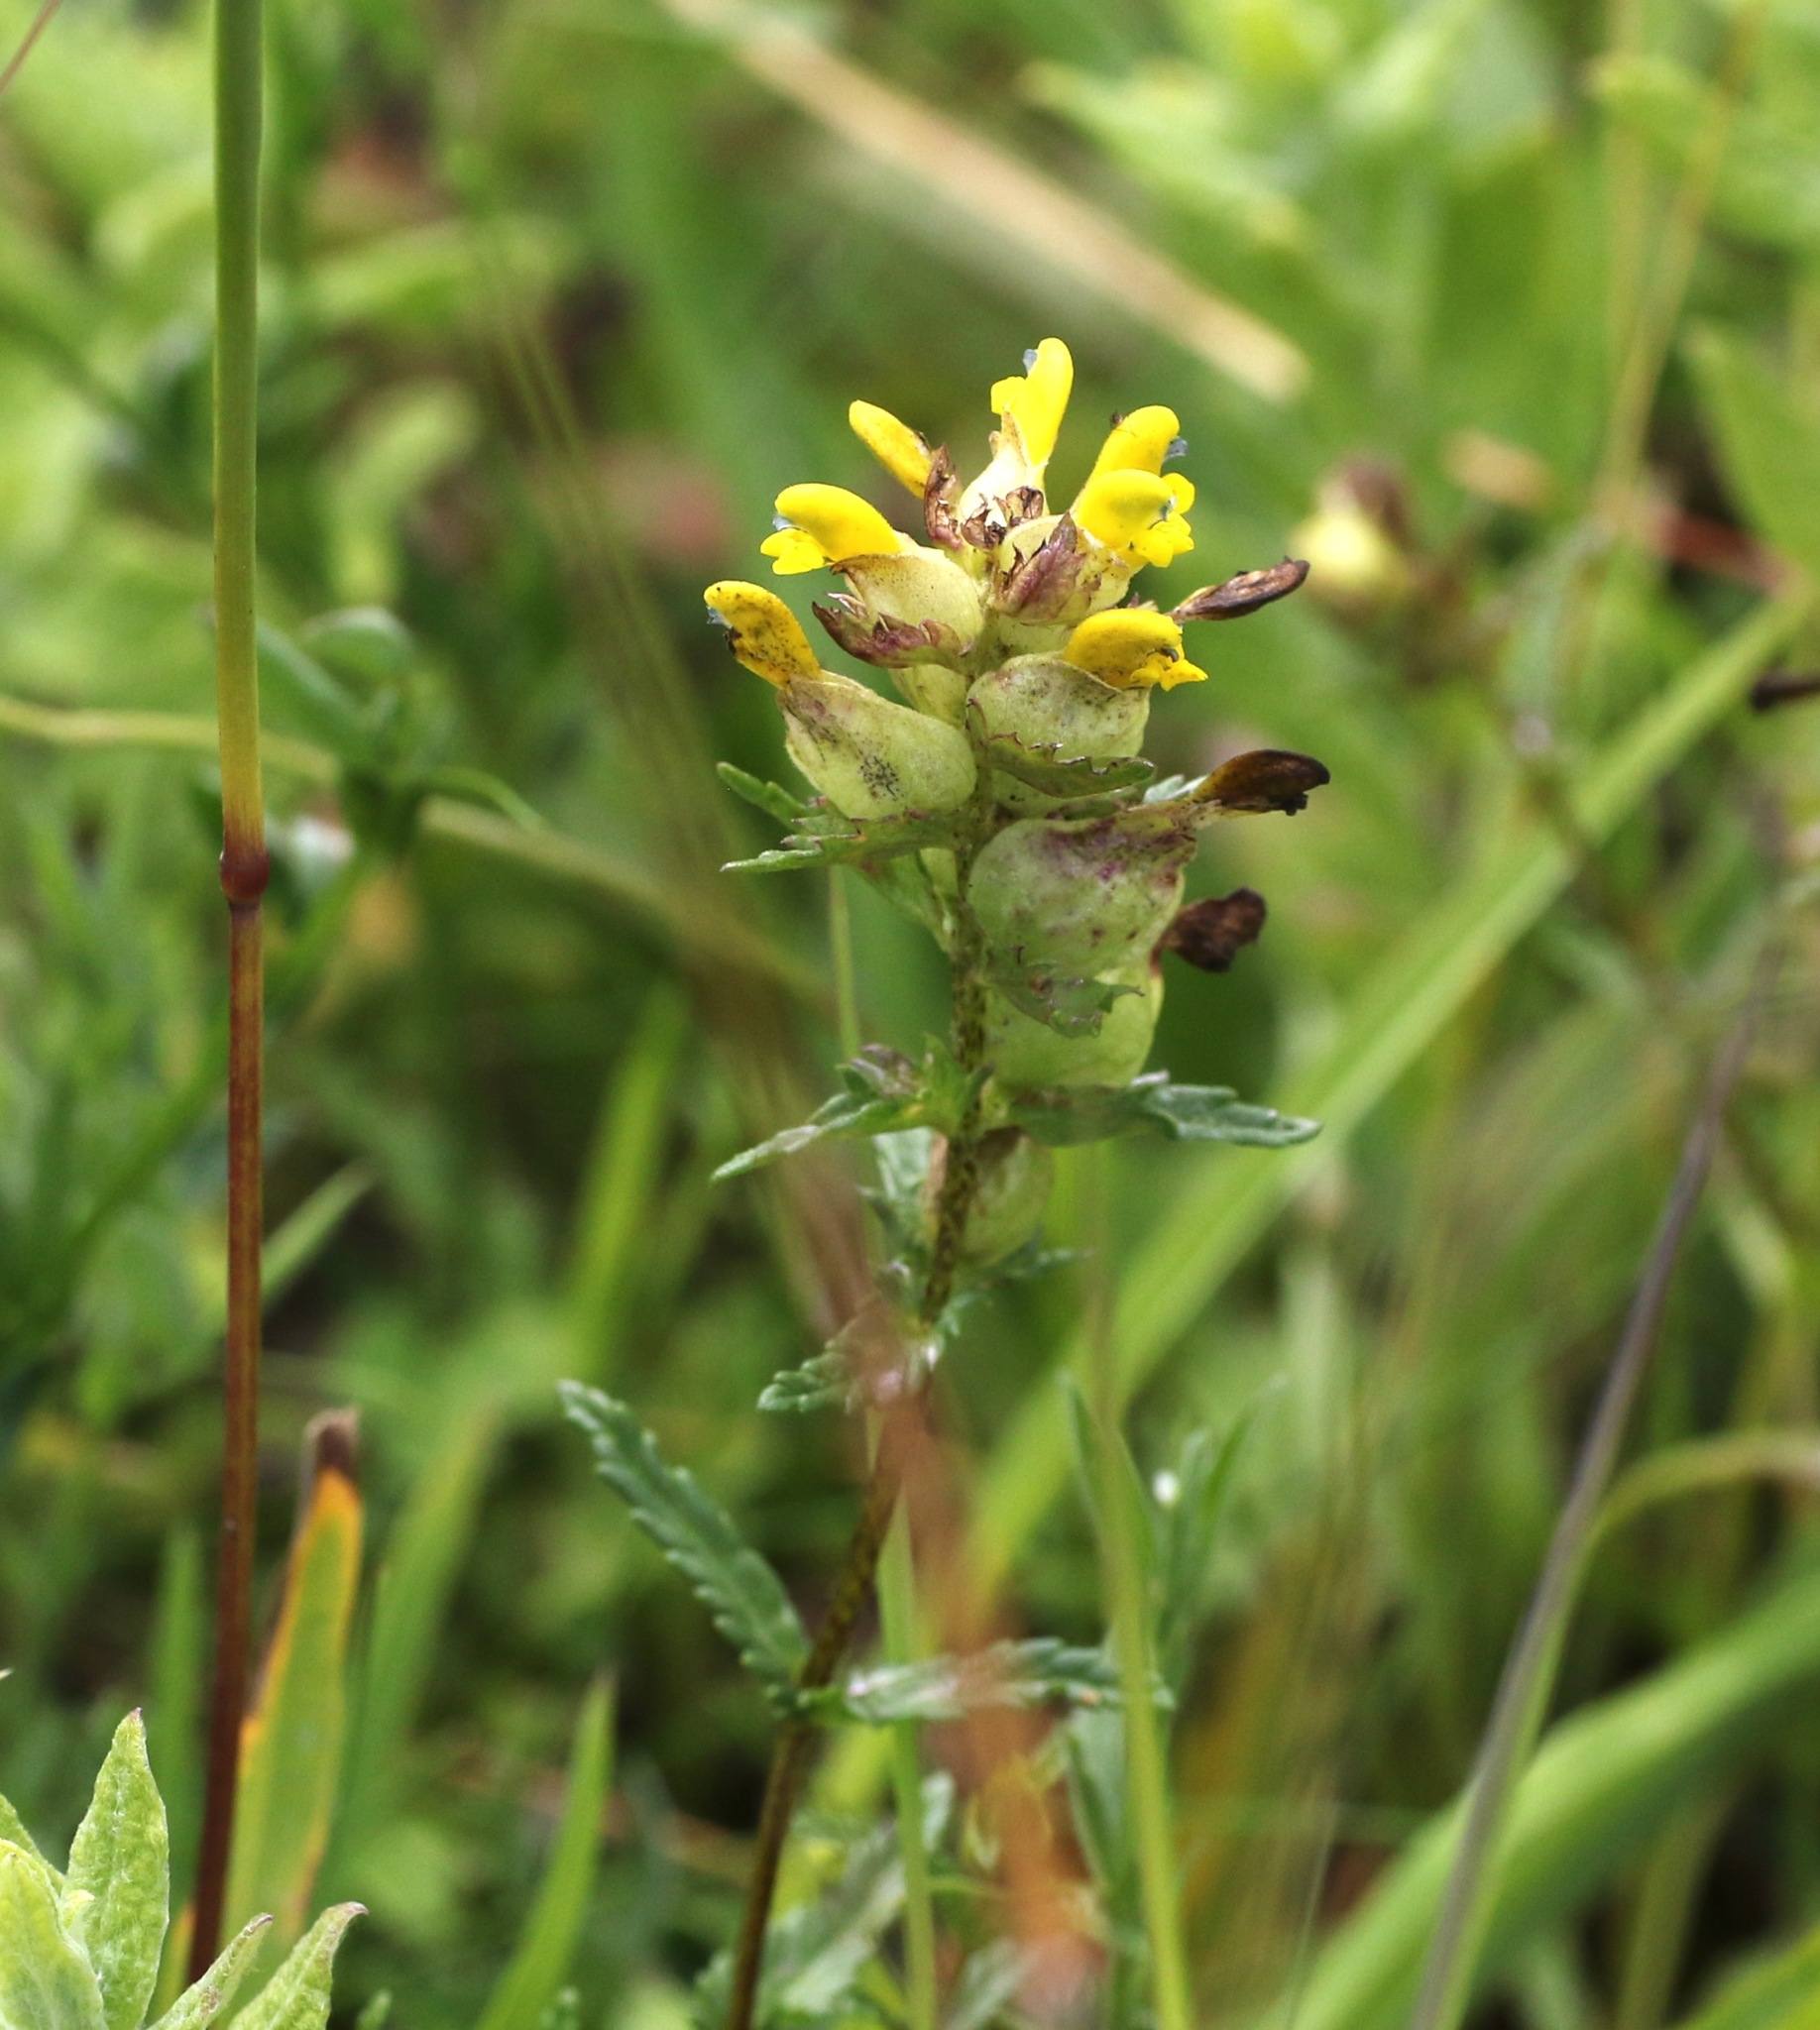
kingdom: Plantae
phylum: Tracheophyta
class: Magnoliopsida
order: Lamiales
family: Orobanchaceae
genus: Rhinanthus
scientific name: Rhinanthus minor
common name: Yellow-rattle
